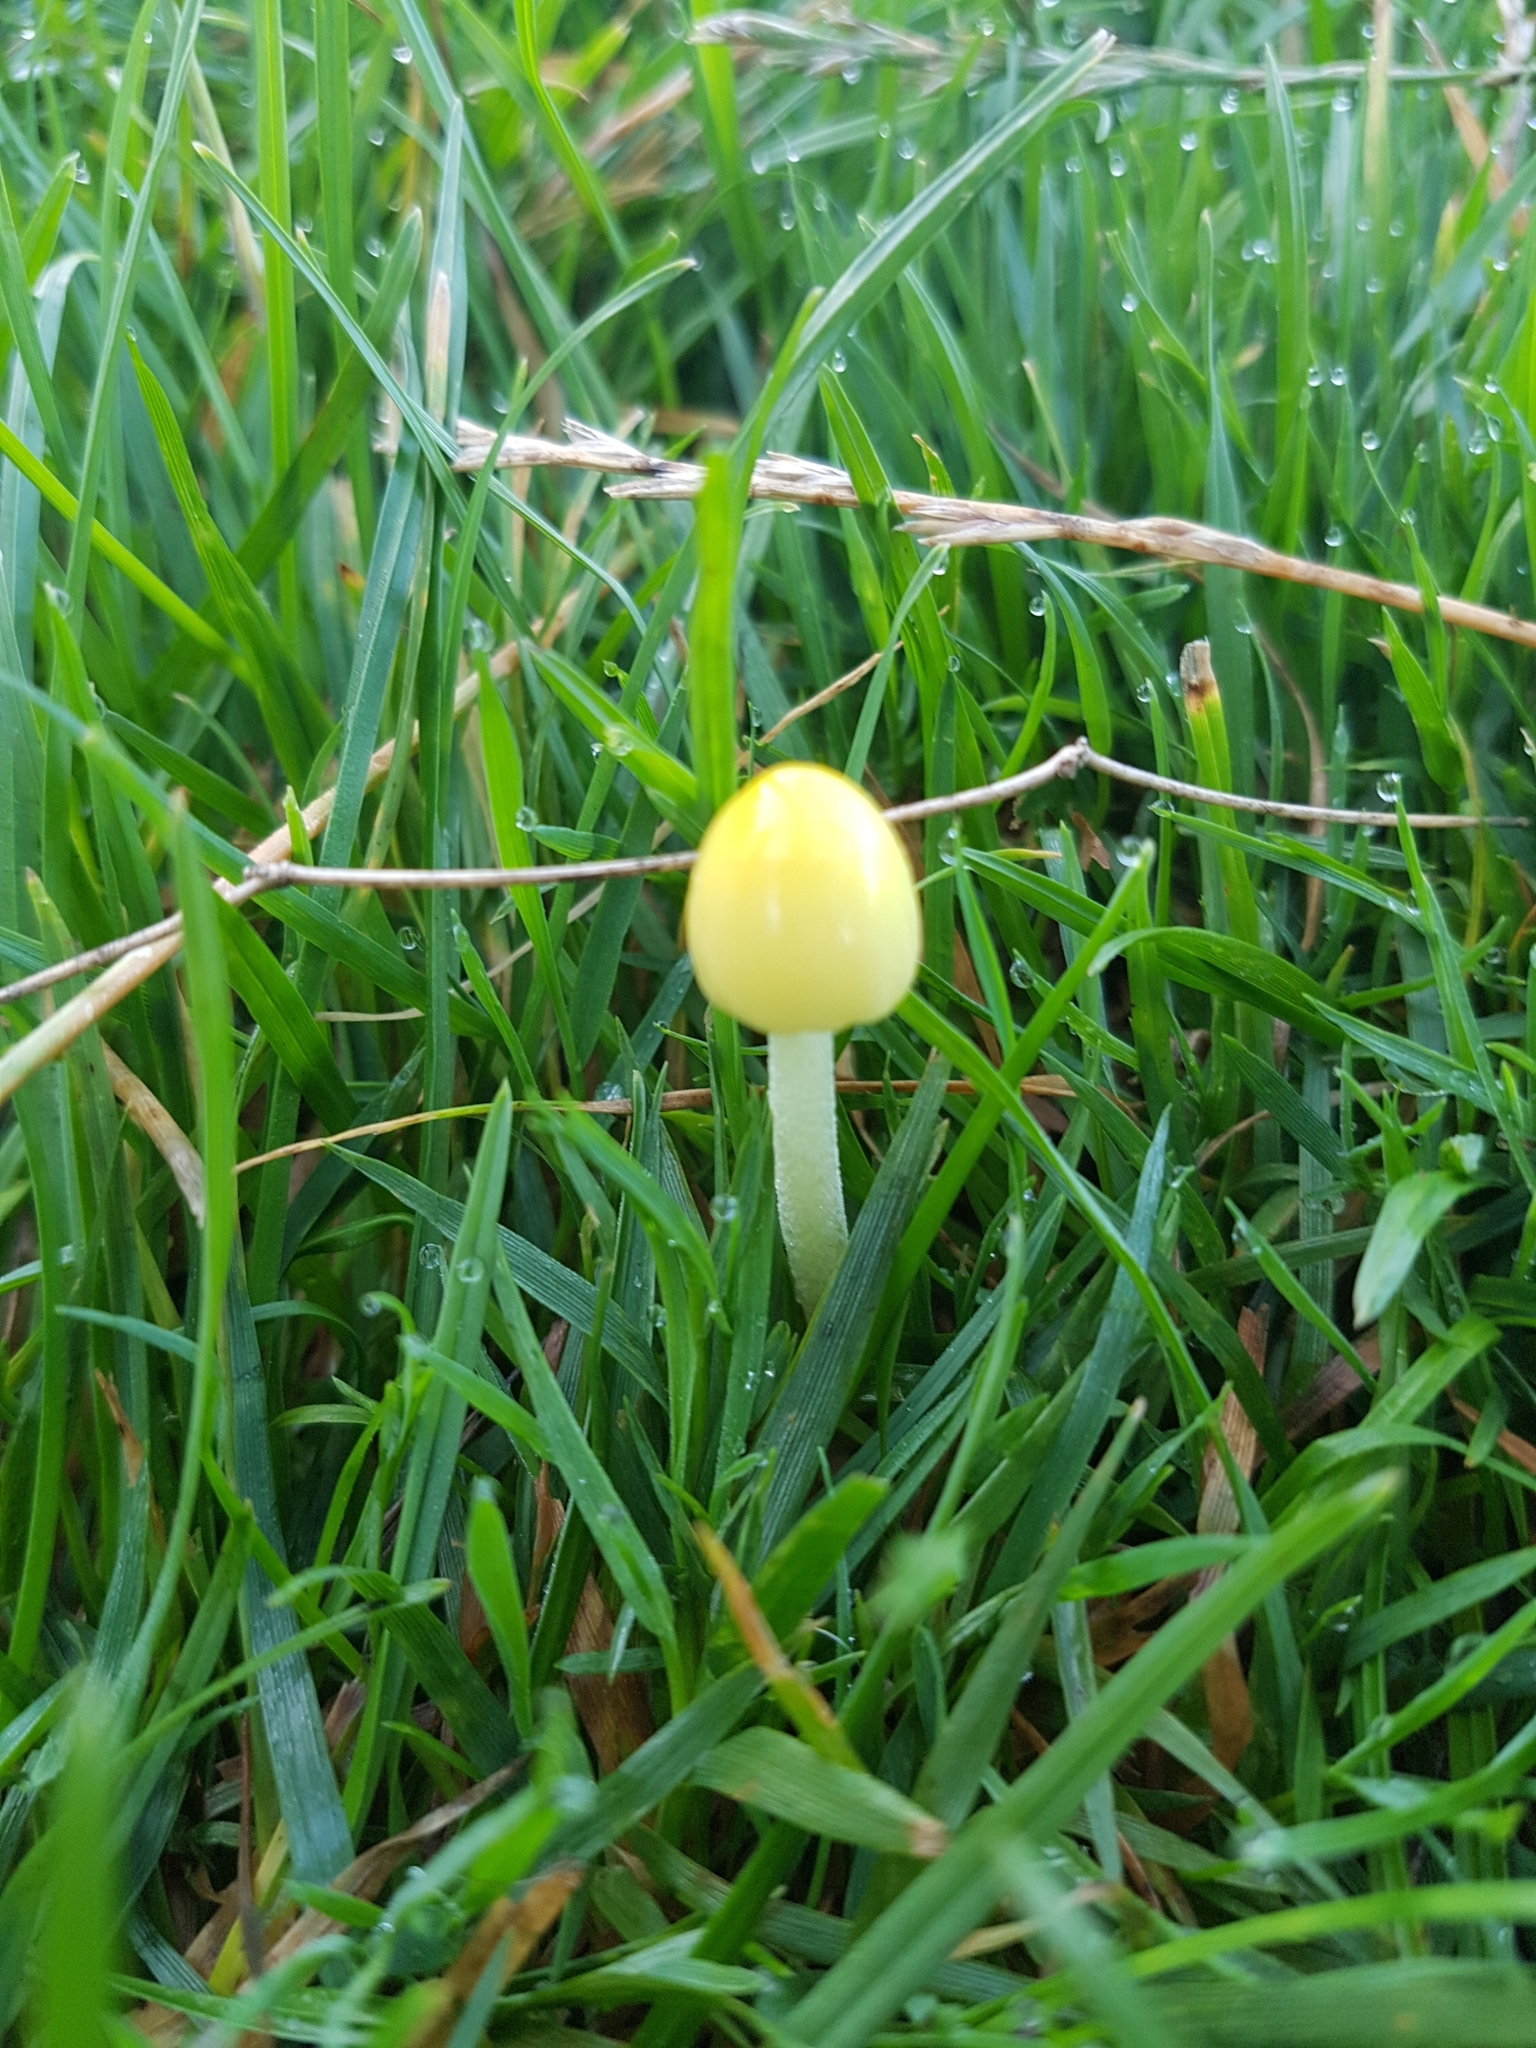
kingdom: Fungi
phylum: Basidiomycota
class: Agaricomycetes
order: Agaricales
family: Bolbitiaceae
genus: Bolbitius
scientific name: Bolbitius titubans
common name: Yellow fieldcap
